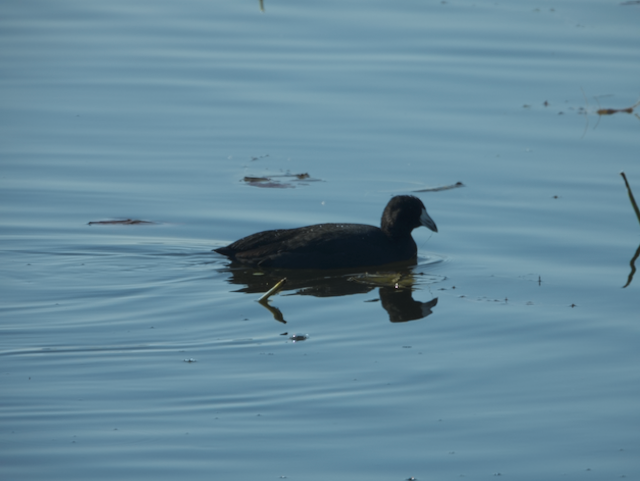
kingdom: Animalia
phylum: Chordata
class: Aves
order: Gruiformes
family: Rallidae
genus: Fulica
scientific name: Fulica americana
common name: American coot
